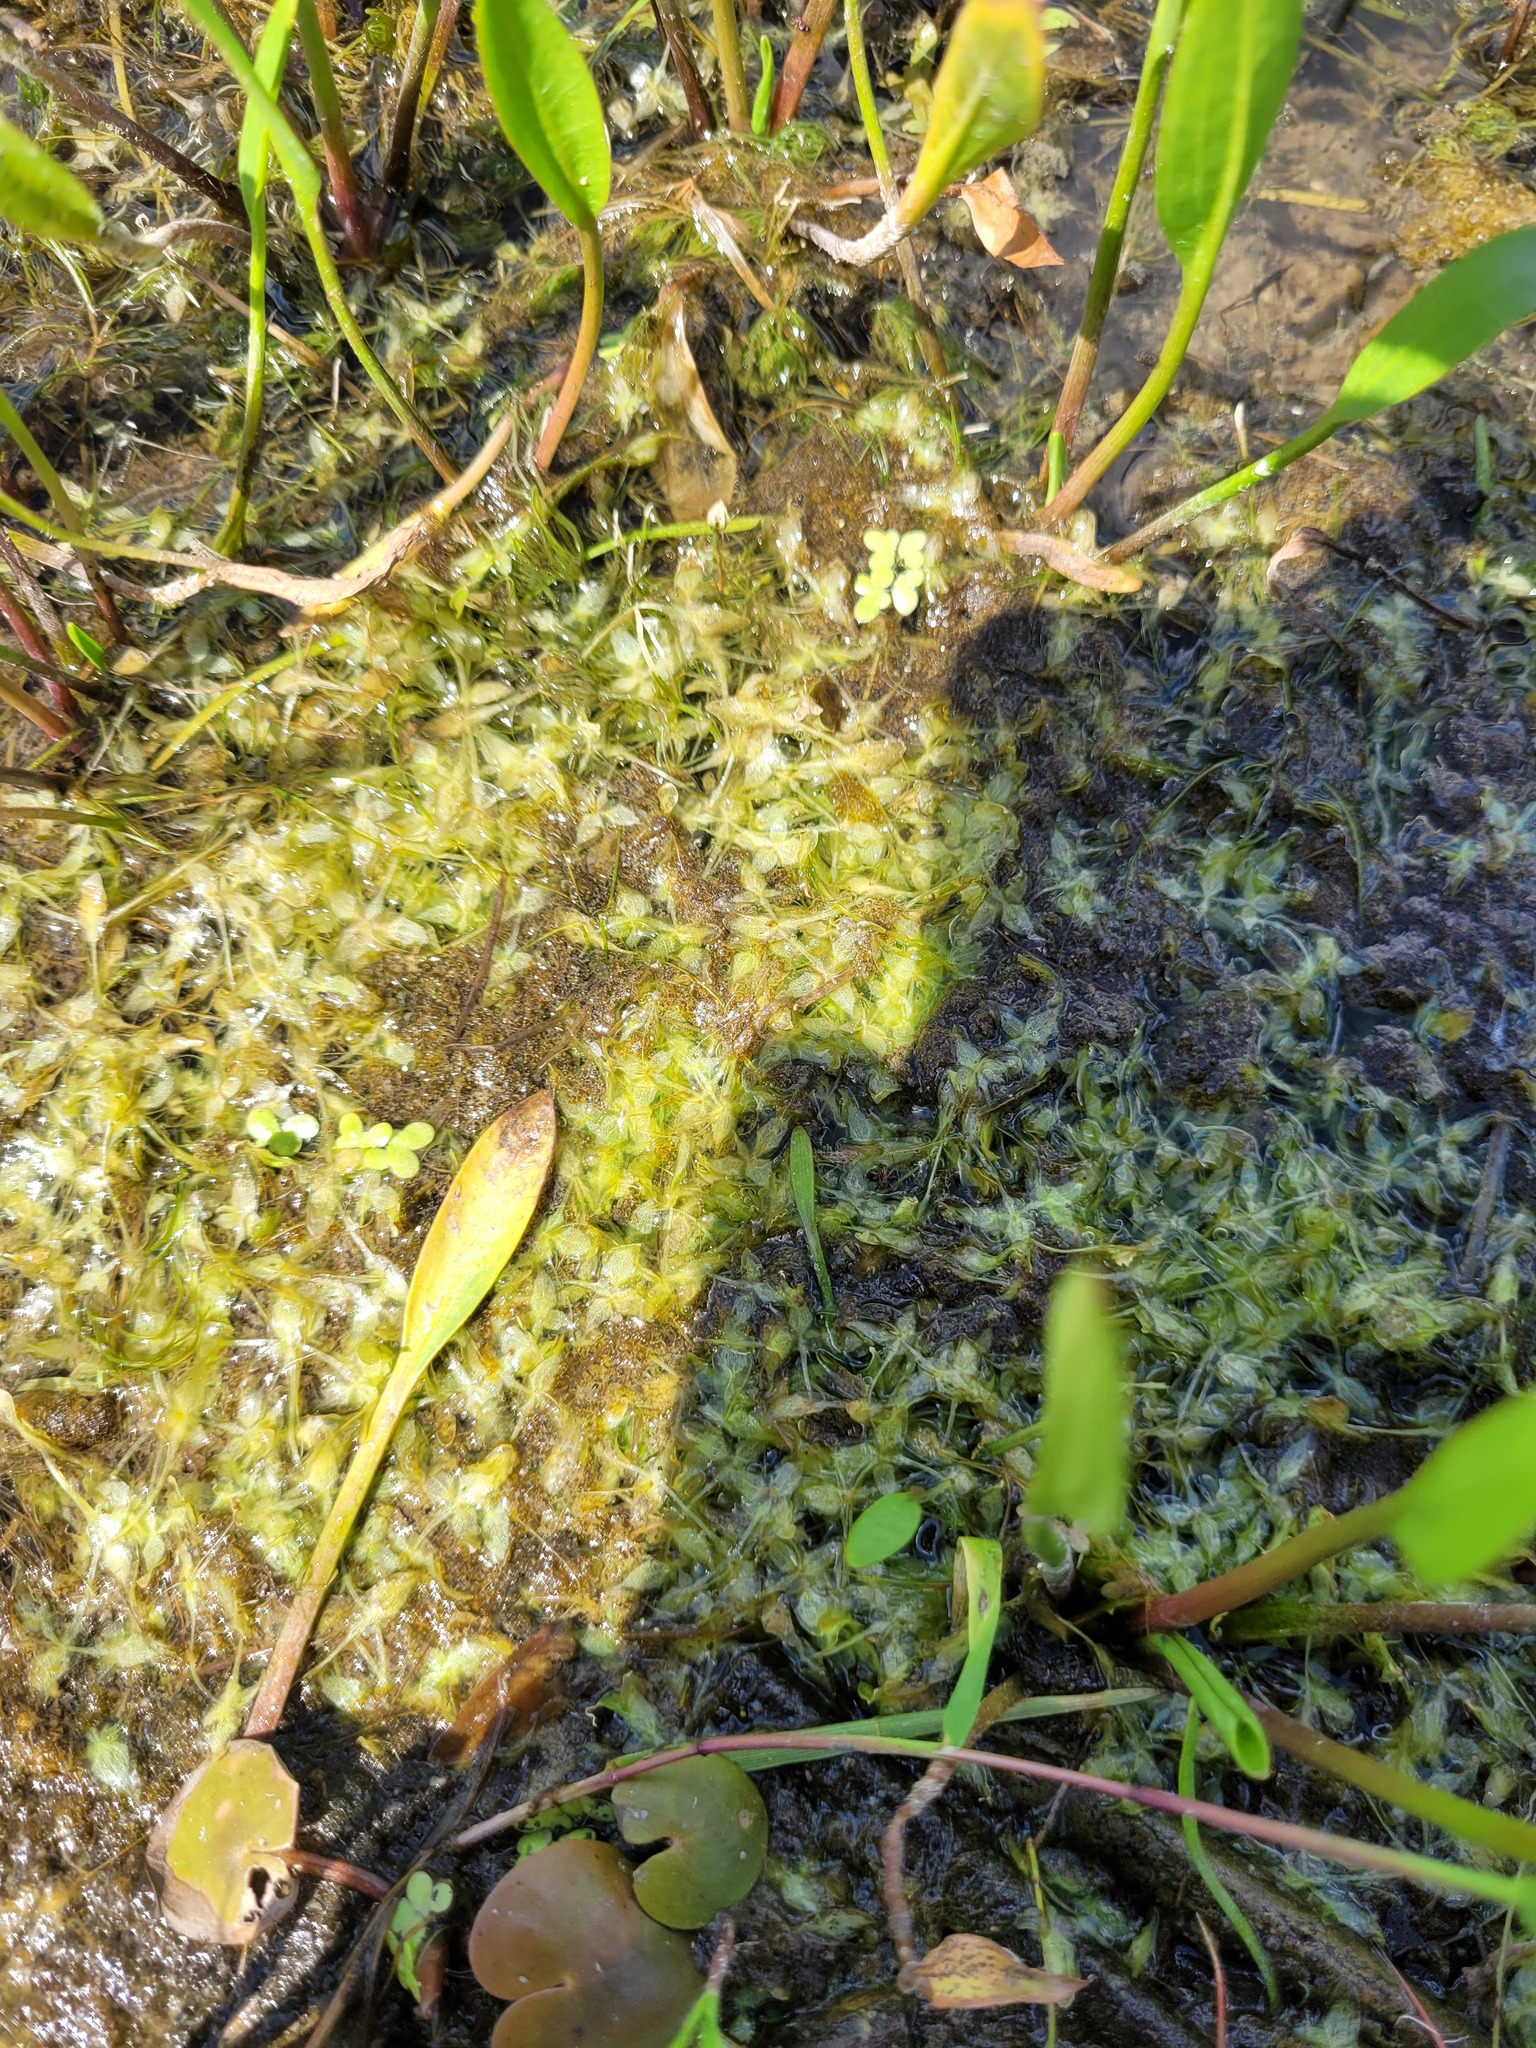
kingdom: Plantae
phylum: Tracheophyta
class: Liliopsida
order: Alismatales
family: Araceae
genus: Lemna
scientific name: Lemna trisulca
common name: Ivy-leaved duckweed
